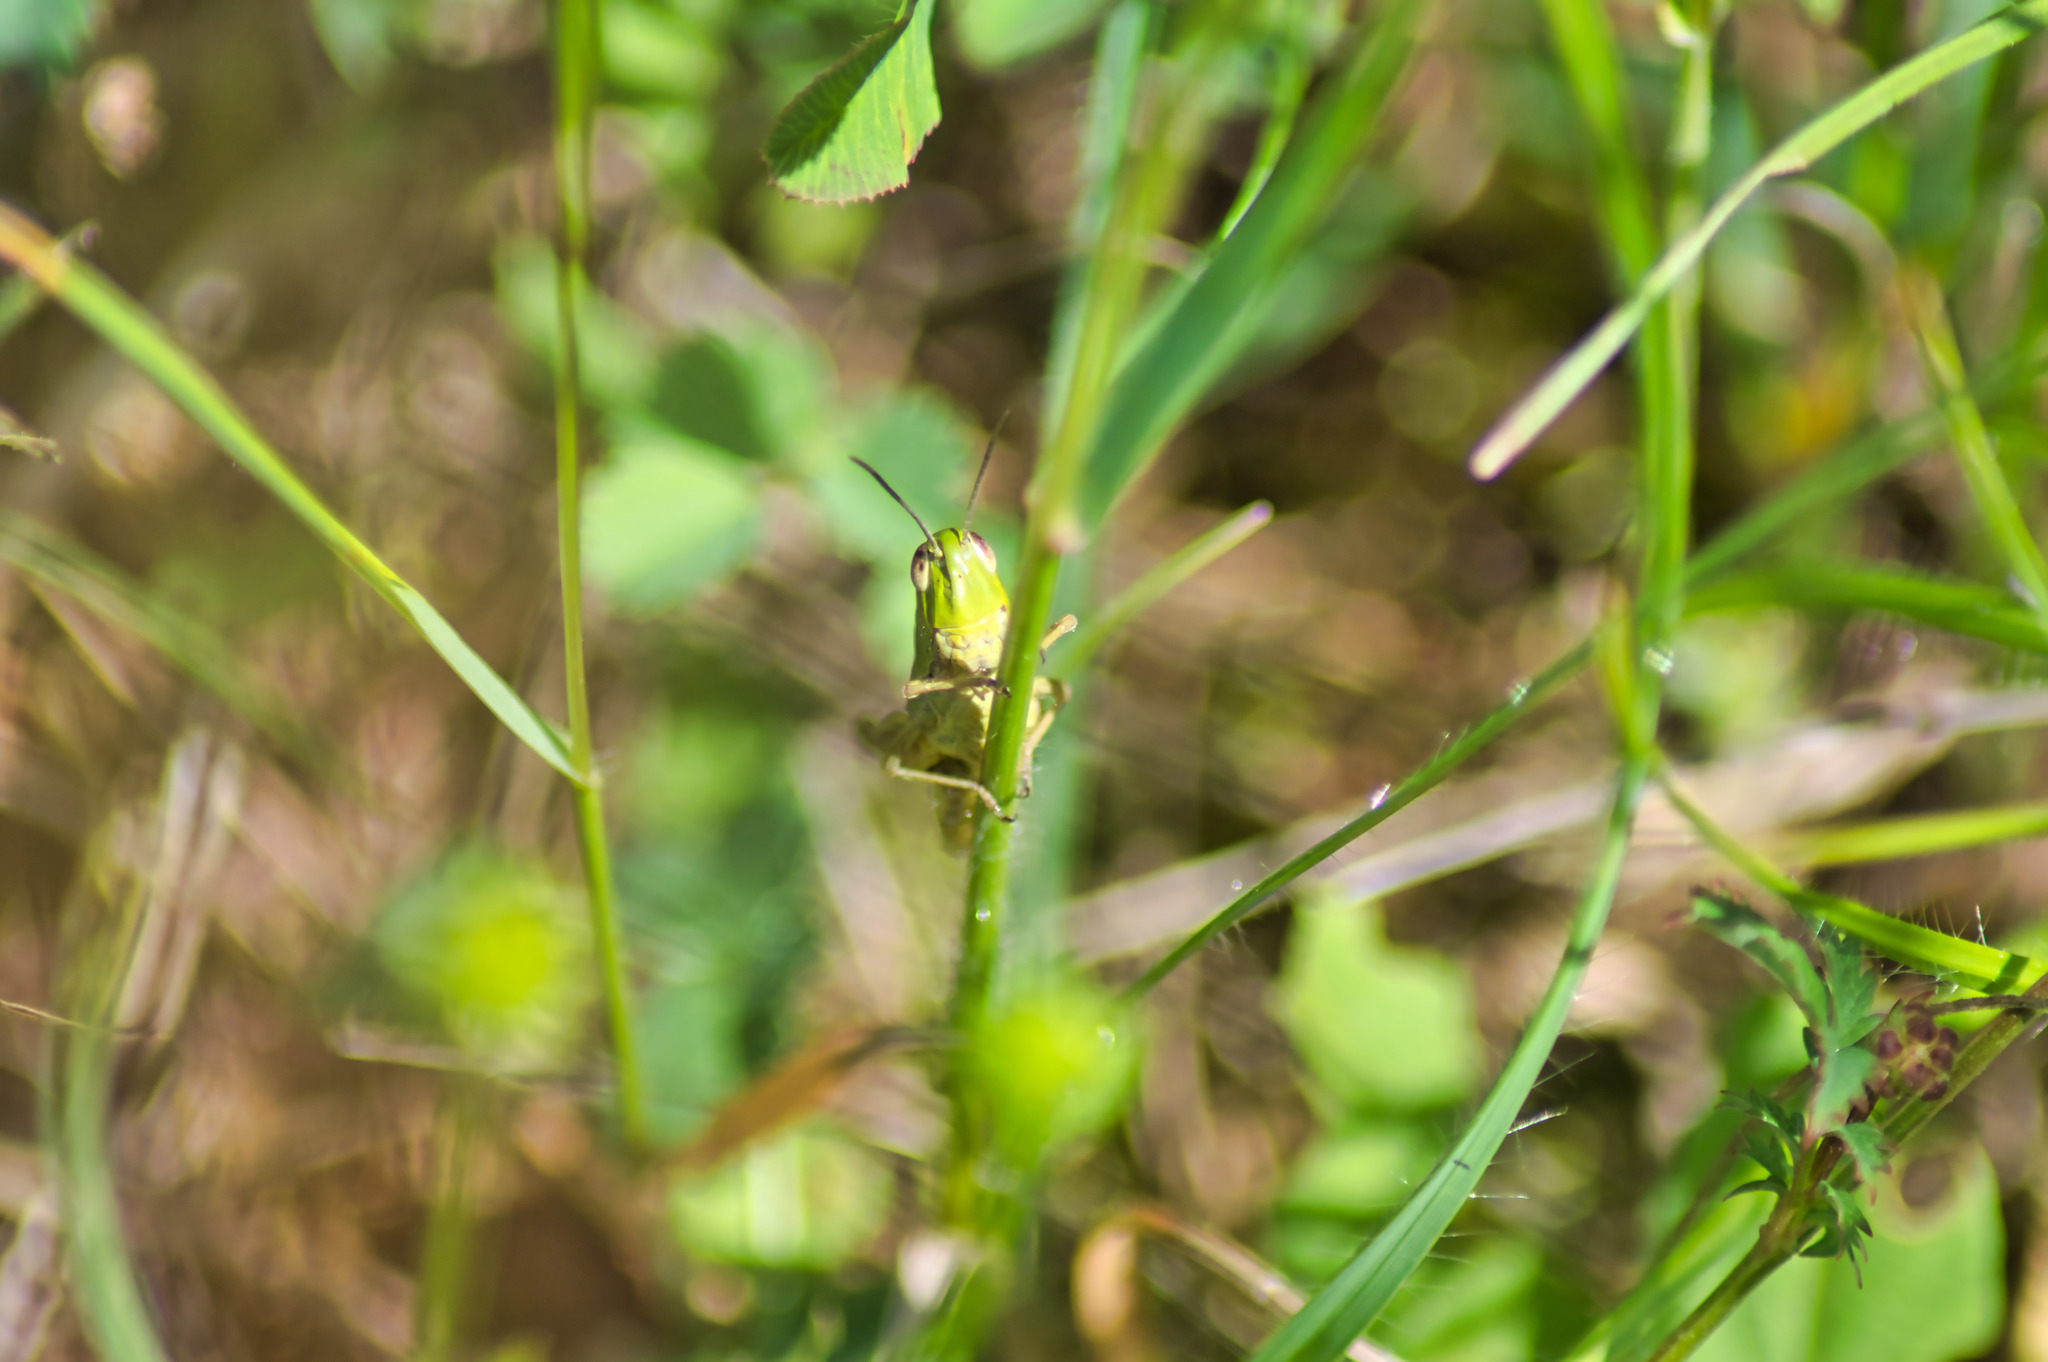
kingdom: Animalia
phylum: Arthropoda
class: Insecta
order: Orthoptera
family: Acrididae
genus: Pseudochorthippus
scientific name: Pseudochorthippus parallelus
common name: Meadow grasshopper
